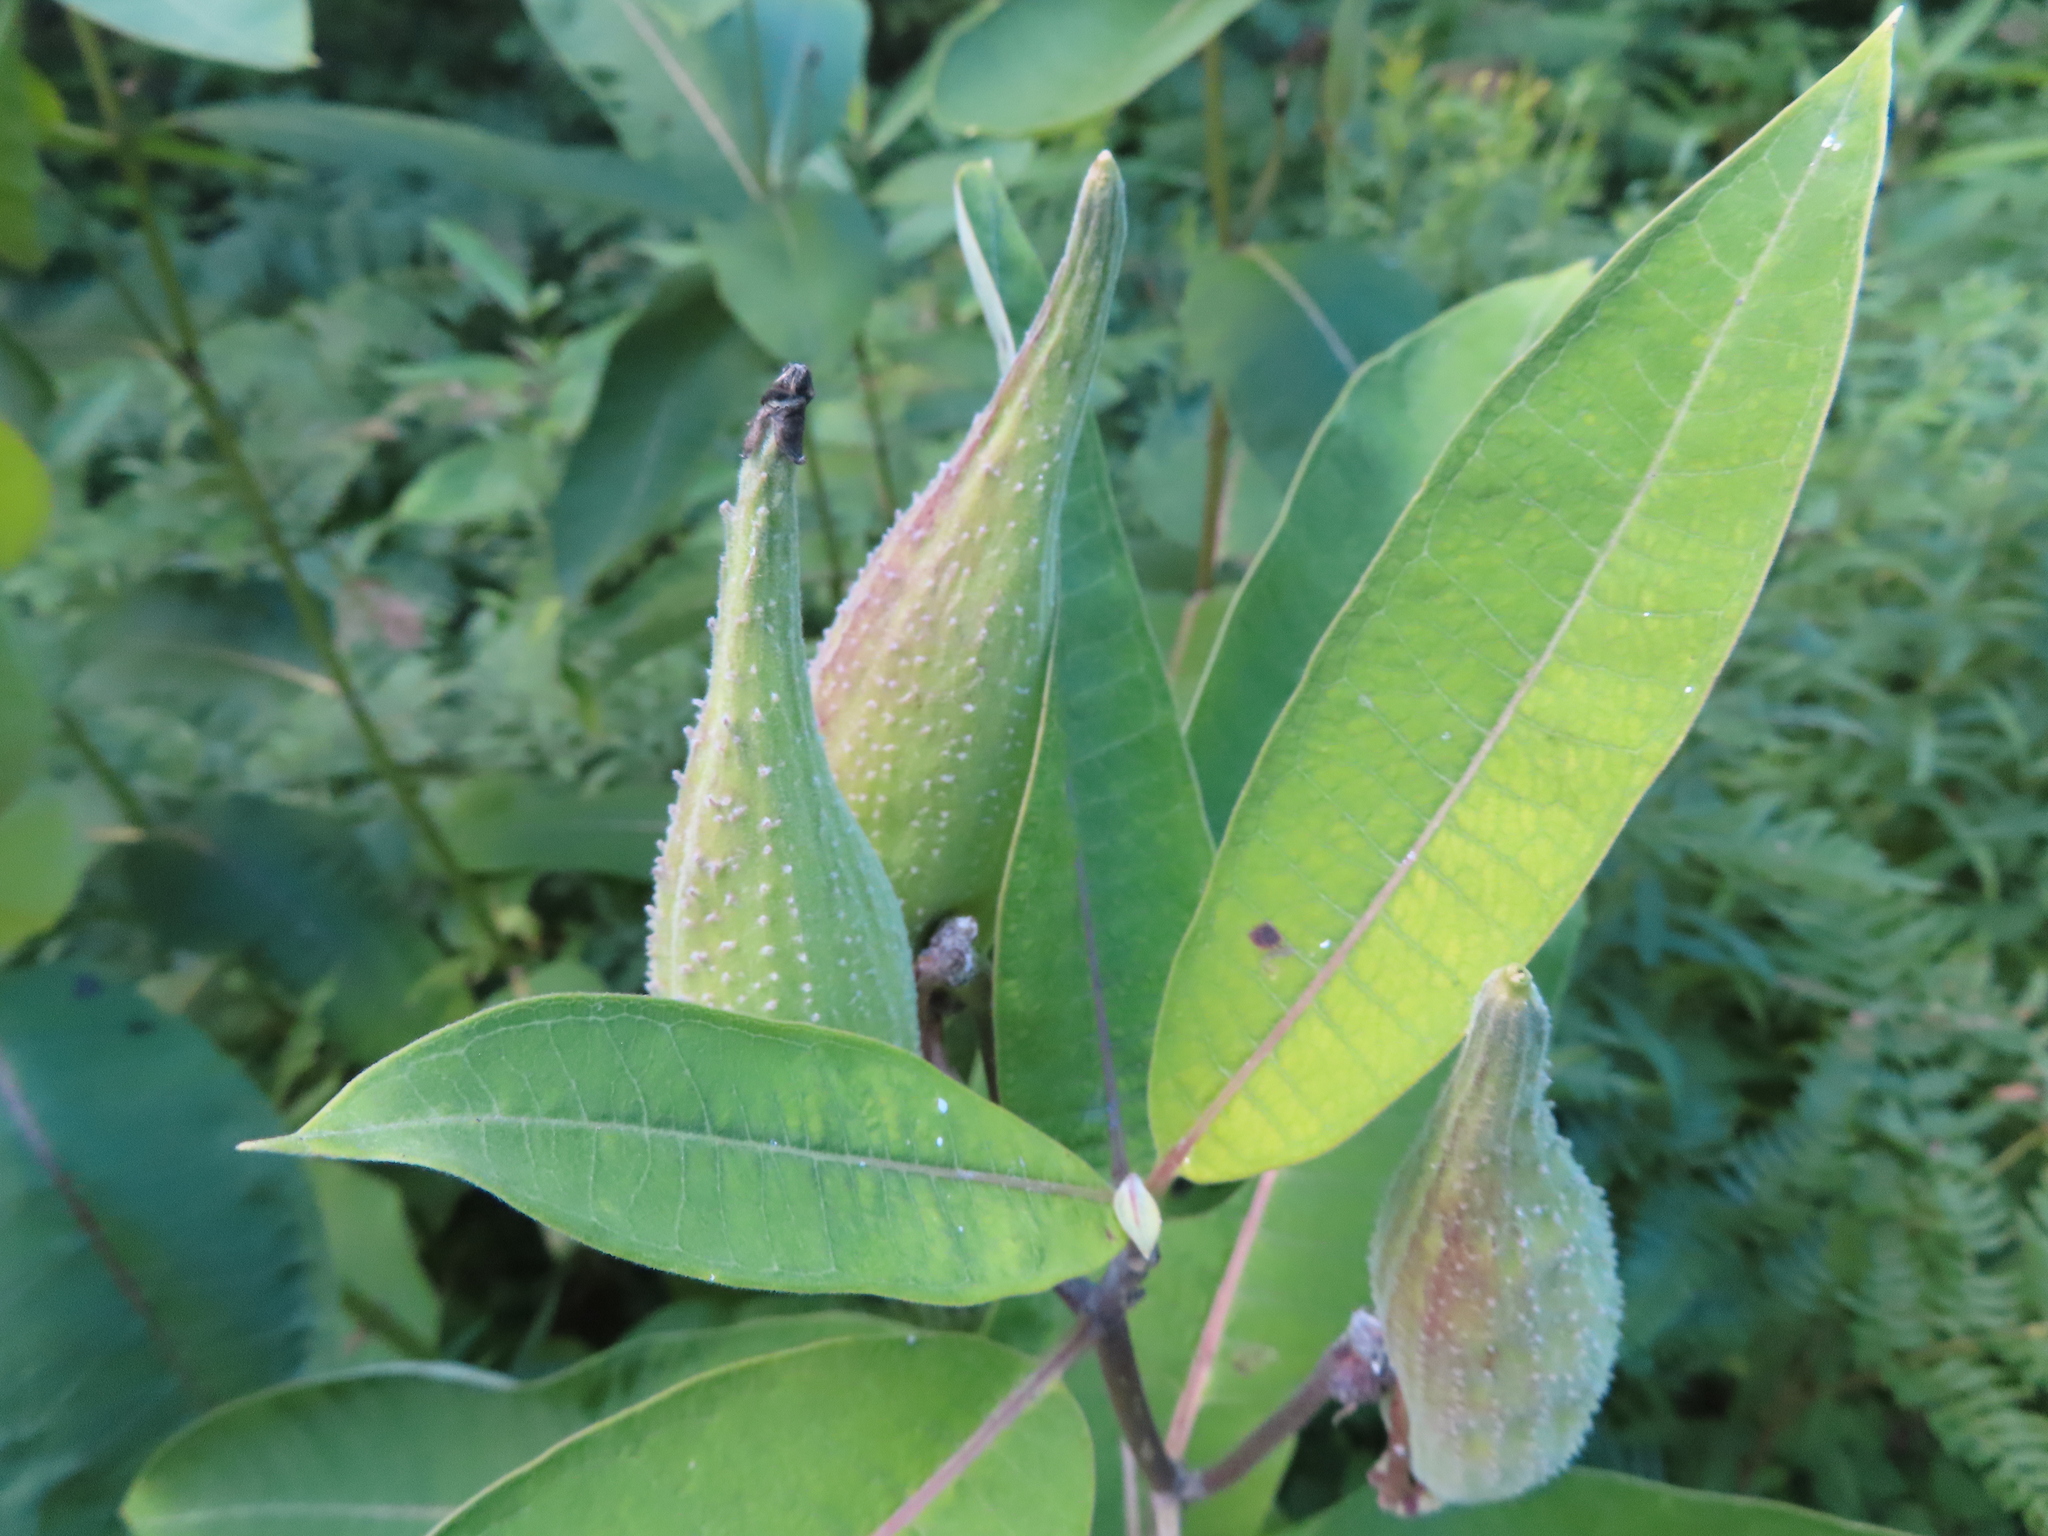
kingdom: Plantae
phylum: Tracheophyta
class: Magnoliopsida
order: Gentianales
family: Apocynaceae
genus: Asclepias
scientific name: Asclepias syriaca
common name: Common milkweed
